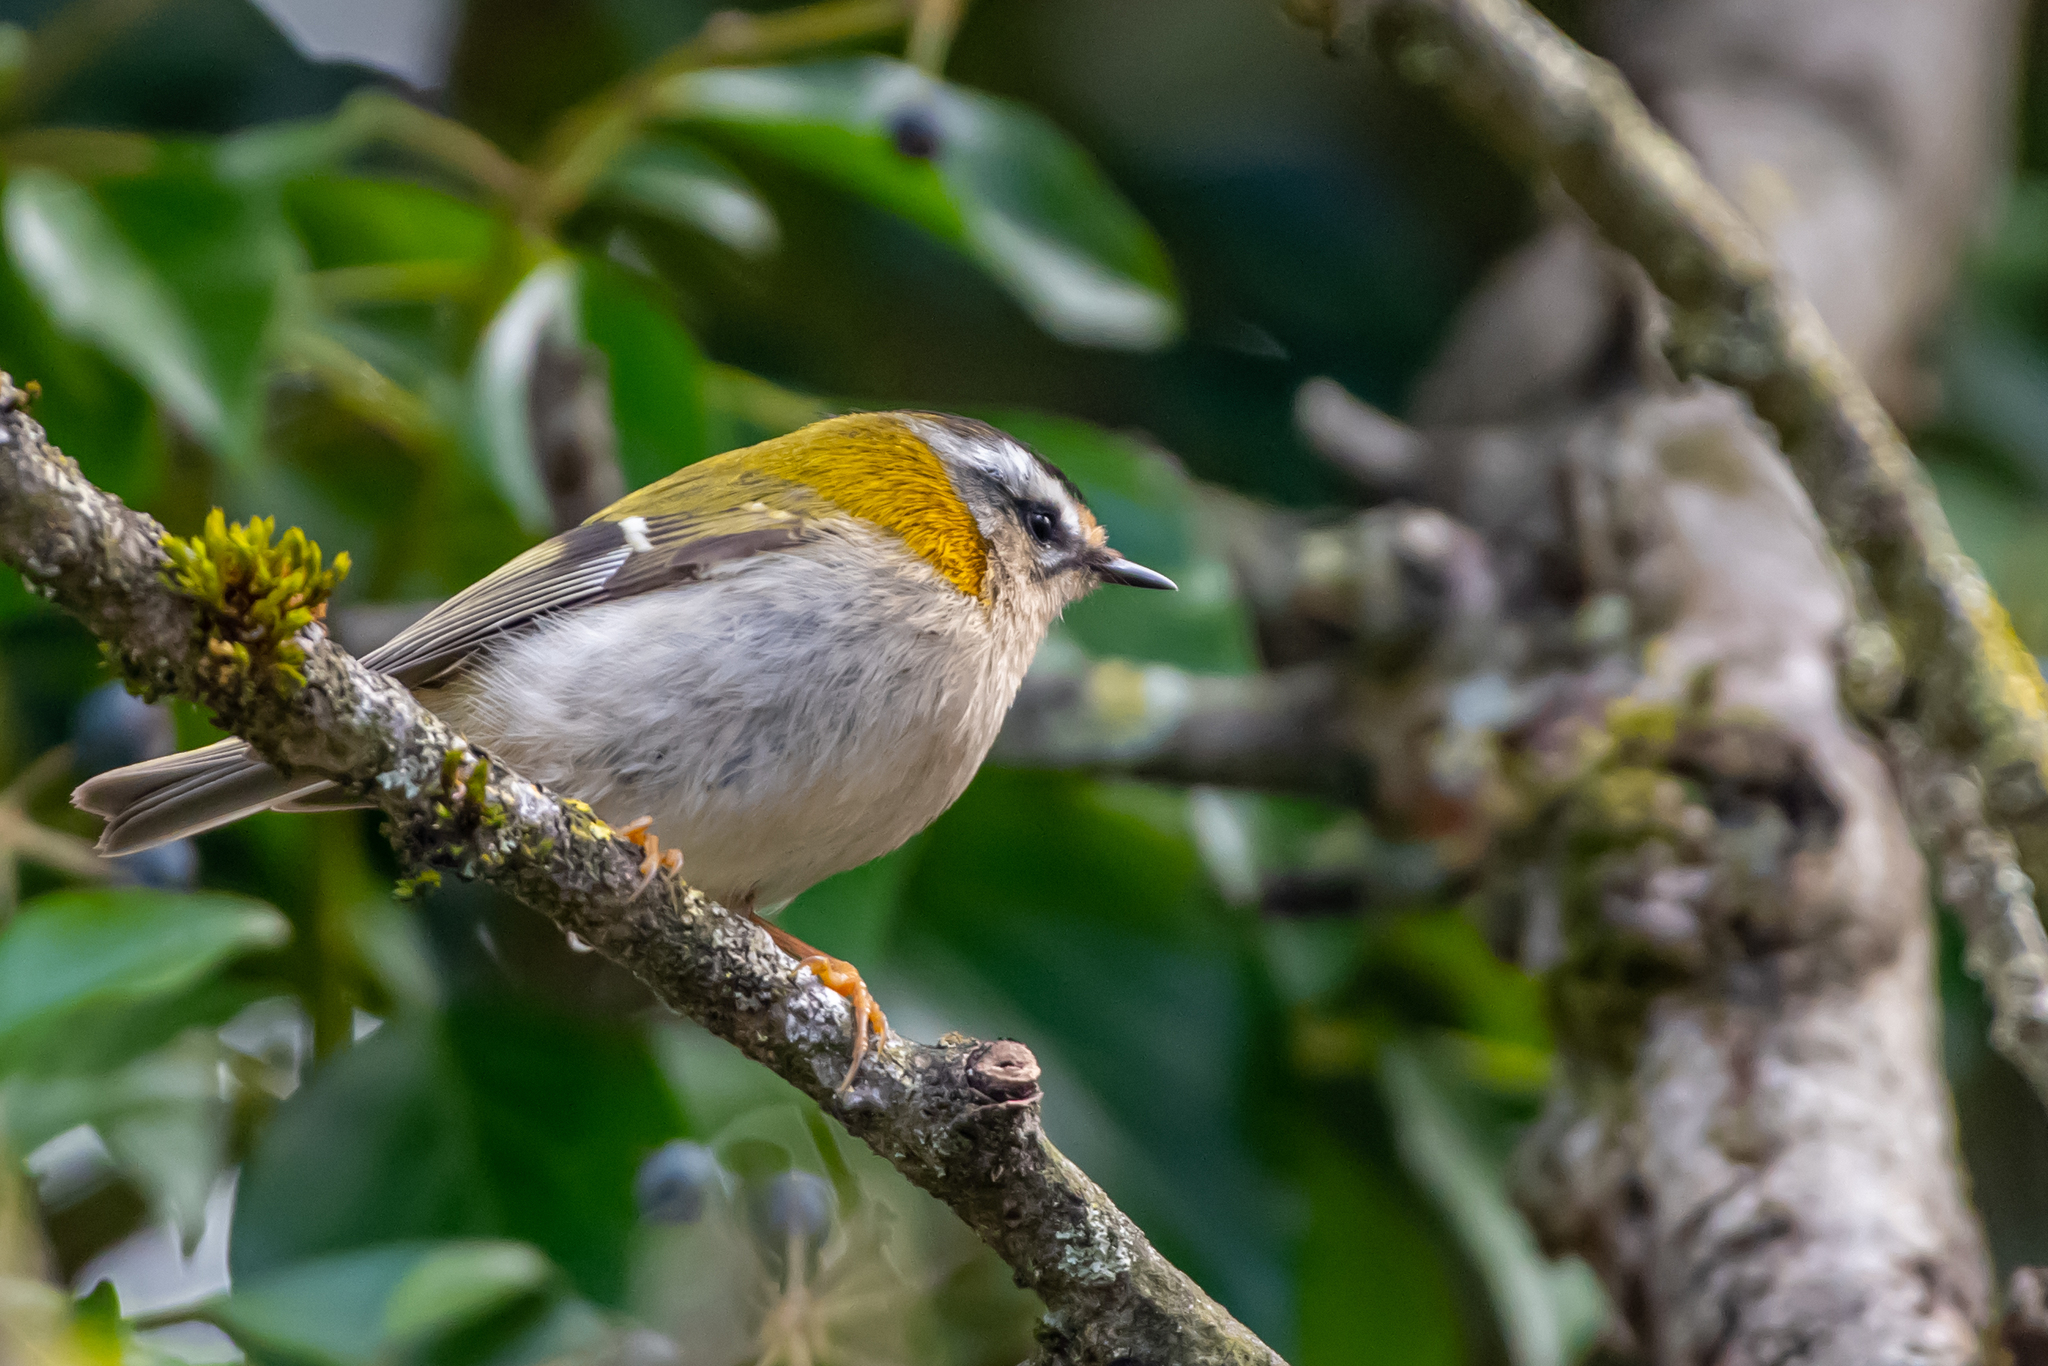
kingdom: Animalia
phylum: Chordata
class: Aves
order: Passeriformes
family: Regulidae
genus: Regulus
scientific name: Regulus ignicapilla
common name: Firecrest
